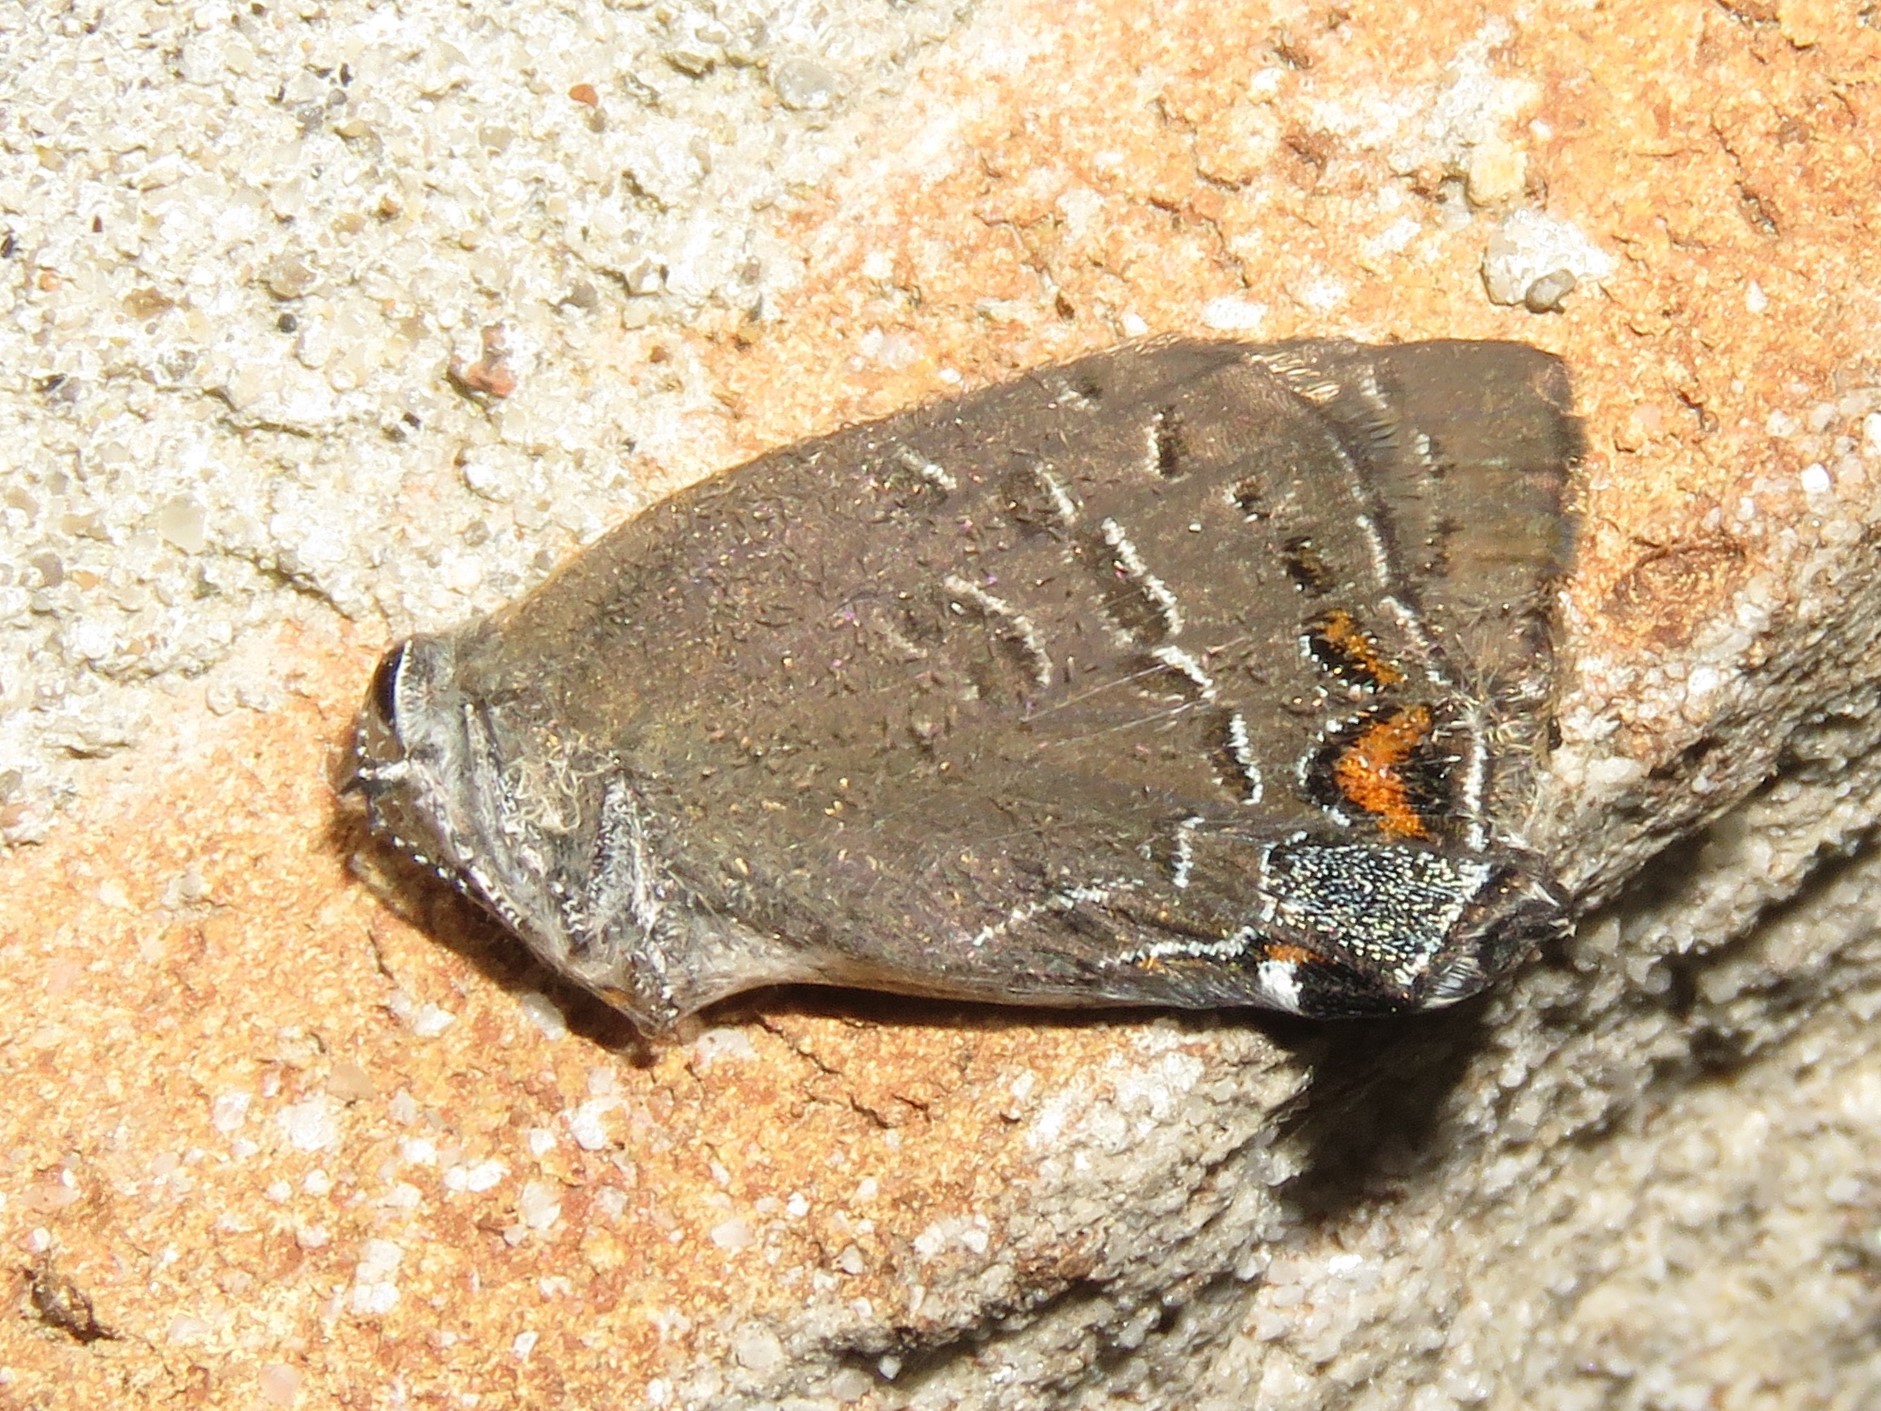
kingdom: Animalia
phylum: Arthropoda
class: Insecta
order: Lepidoptera
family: Lycaenidae
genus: Satyrium
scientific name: Satyrium calanus
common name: Banded hairstreak
